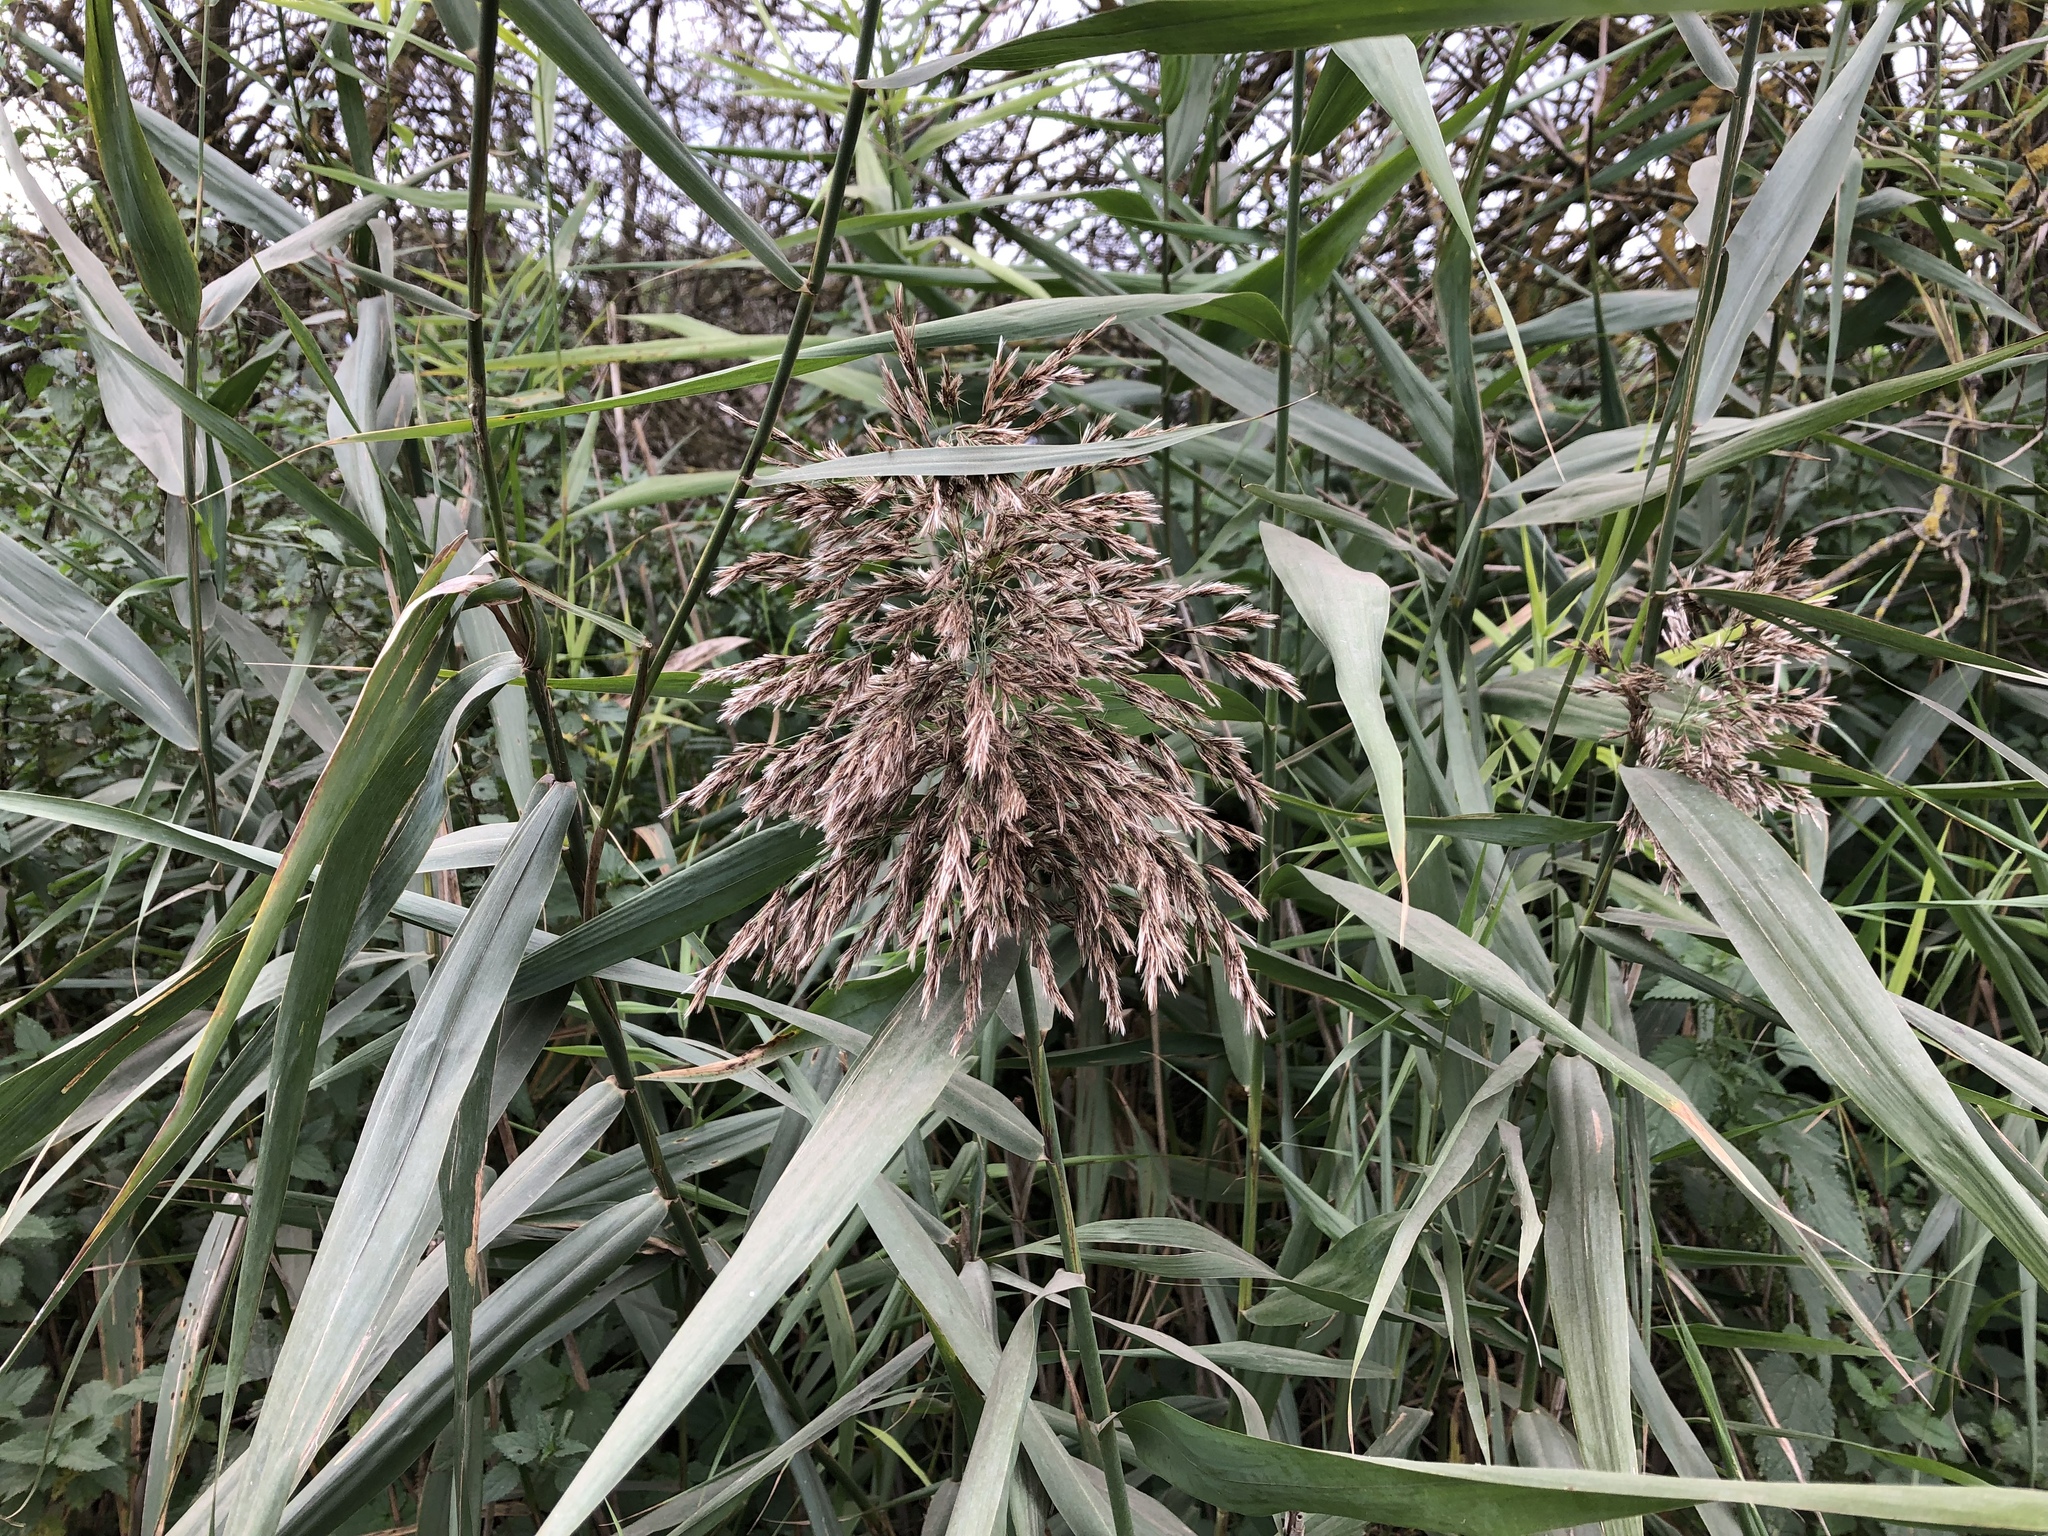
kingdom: Plantae
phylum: Tracheophyta
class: Liliopsida
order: Poales
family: Poaceae
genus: Phragmites
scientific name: Phragmites australis
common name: Common reed
